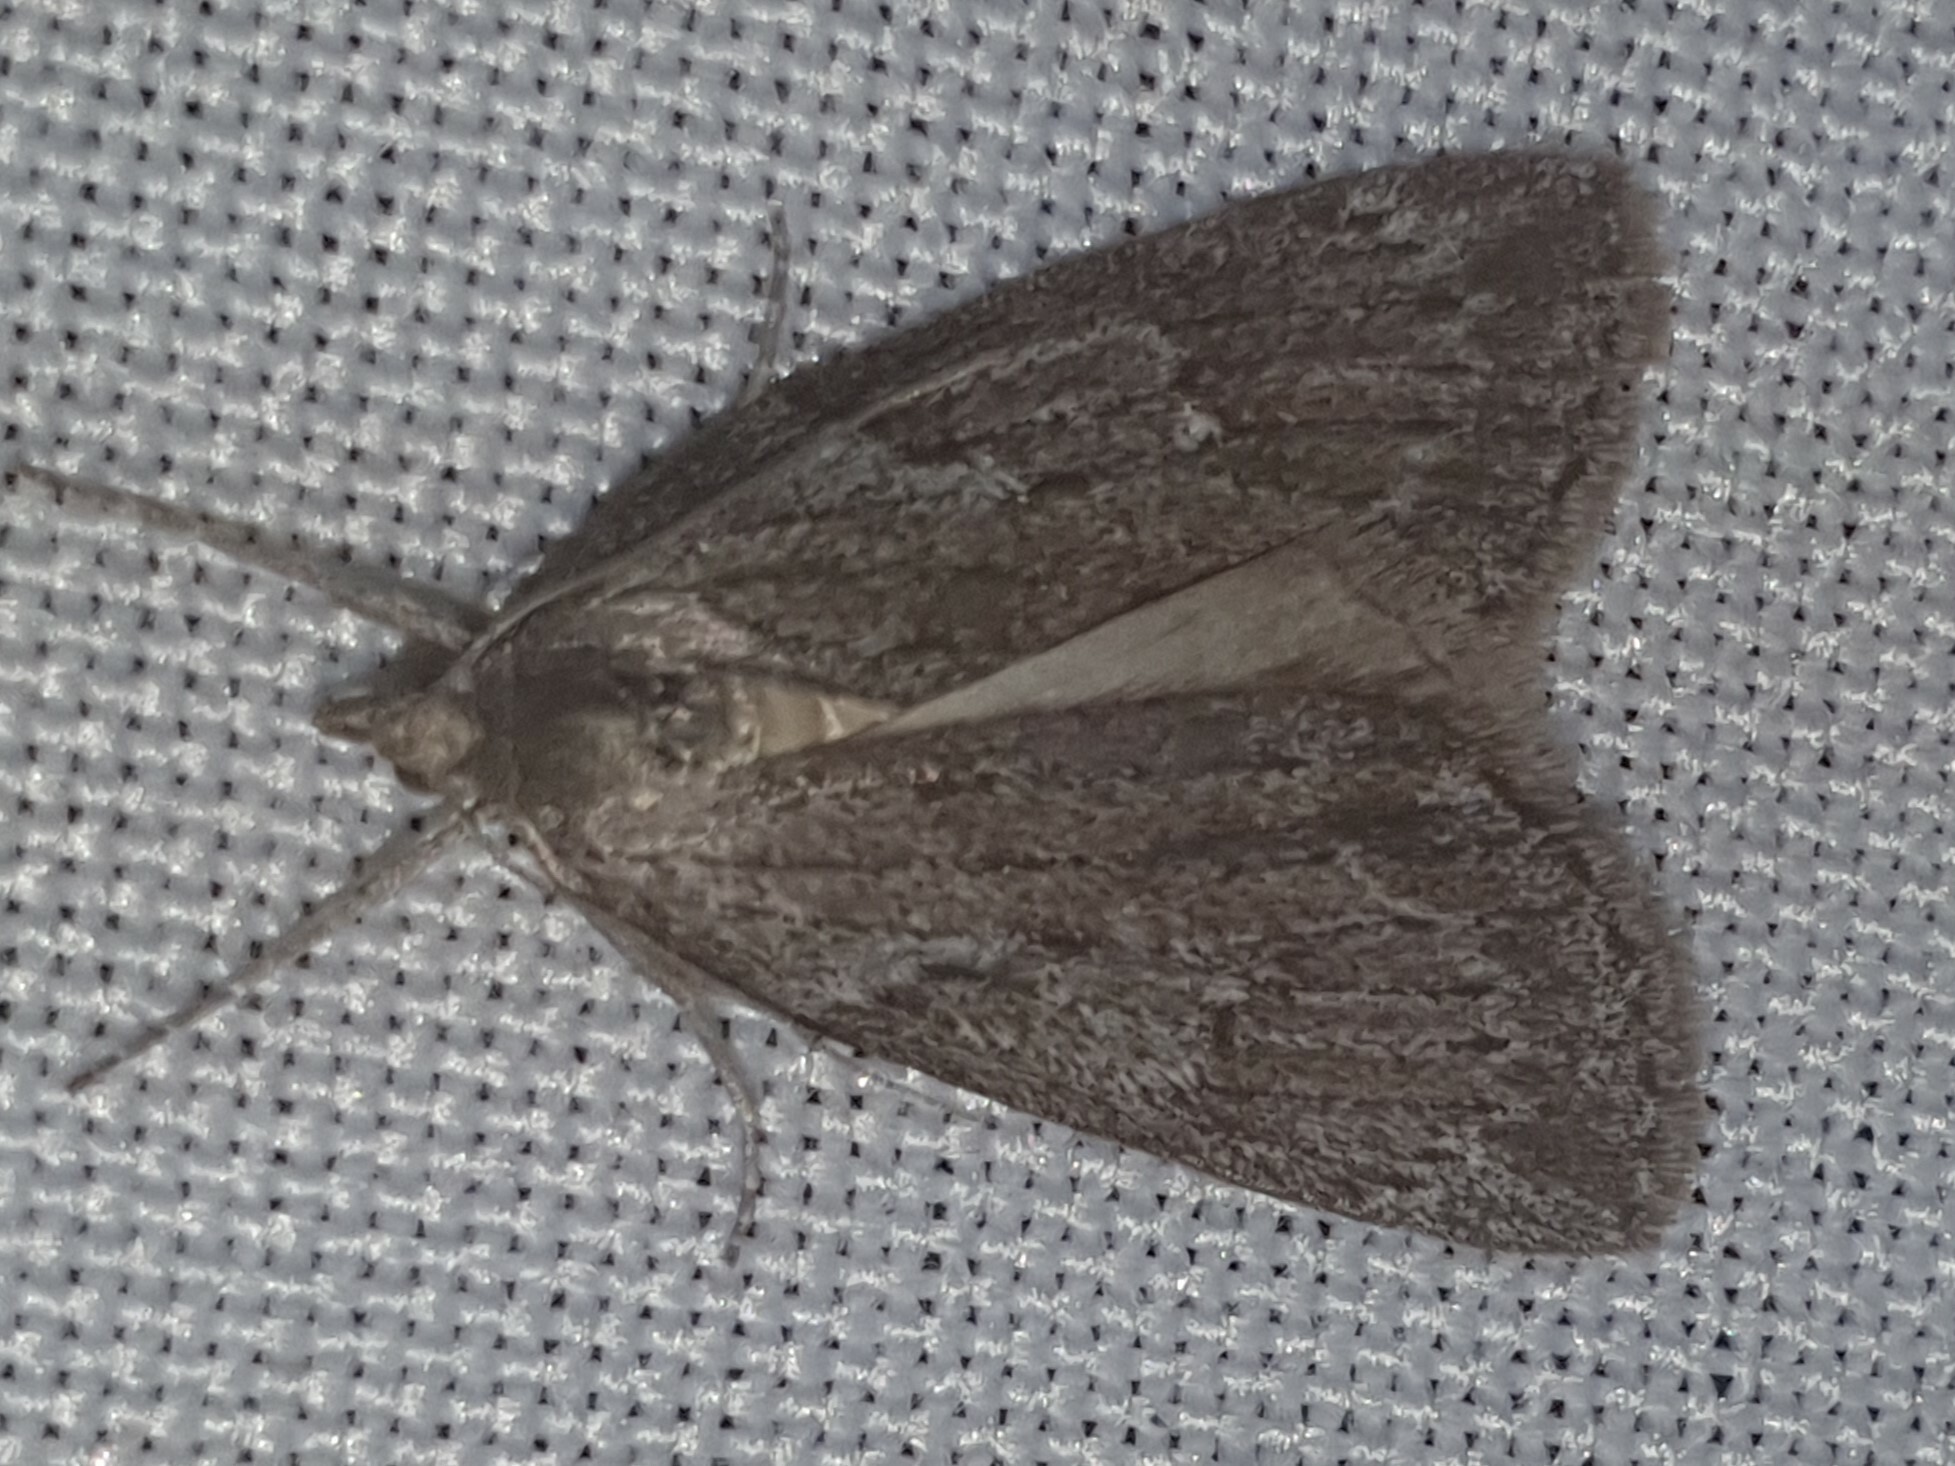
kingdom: Animalia
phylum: Arthropoda
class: Insecta
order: Lepidoptera
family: Geometridae
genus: Pachycnemia
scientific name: Pachycnemia hippocastanaria
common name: Horse chestnut
